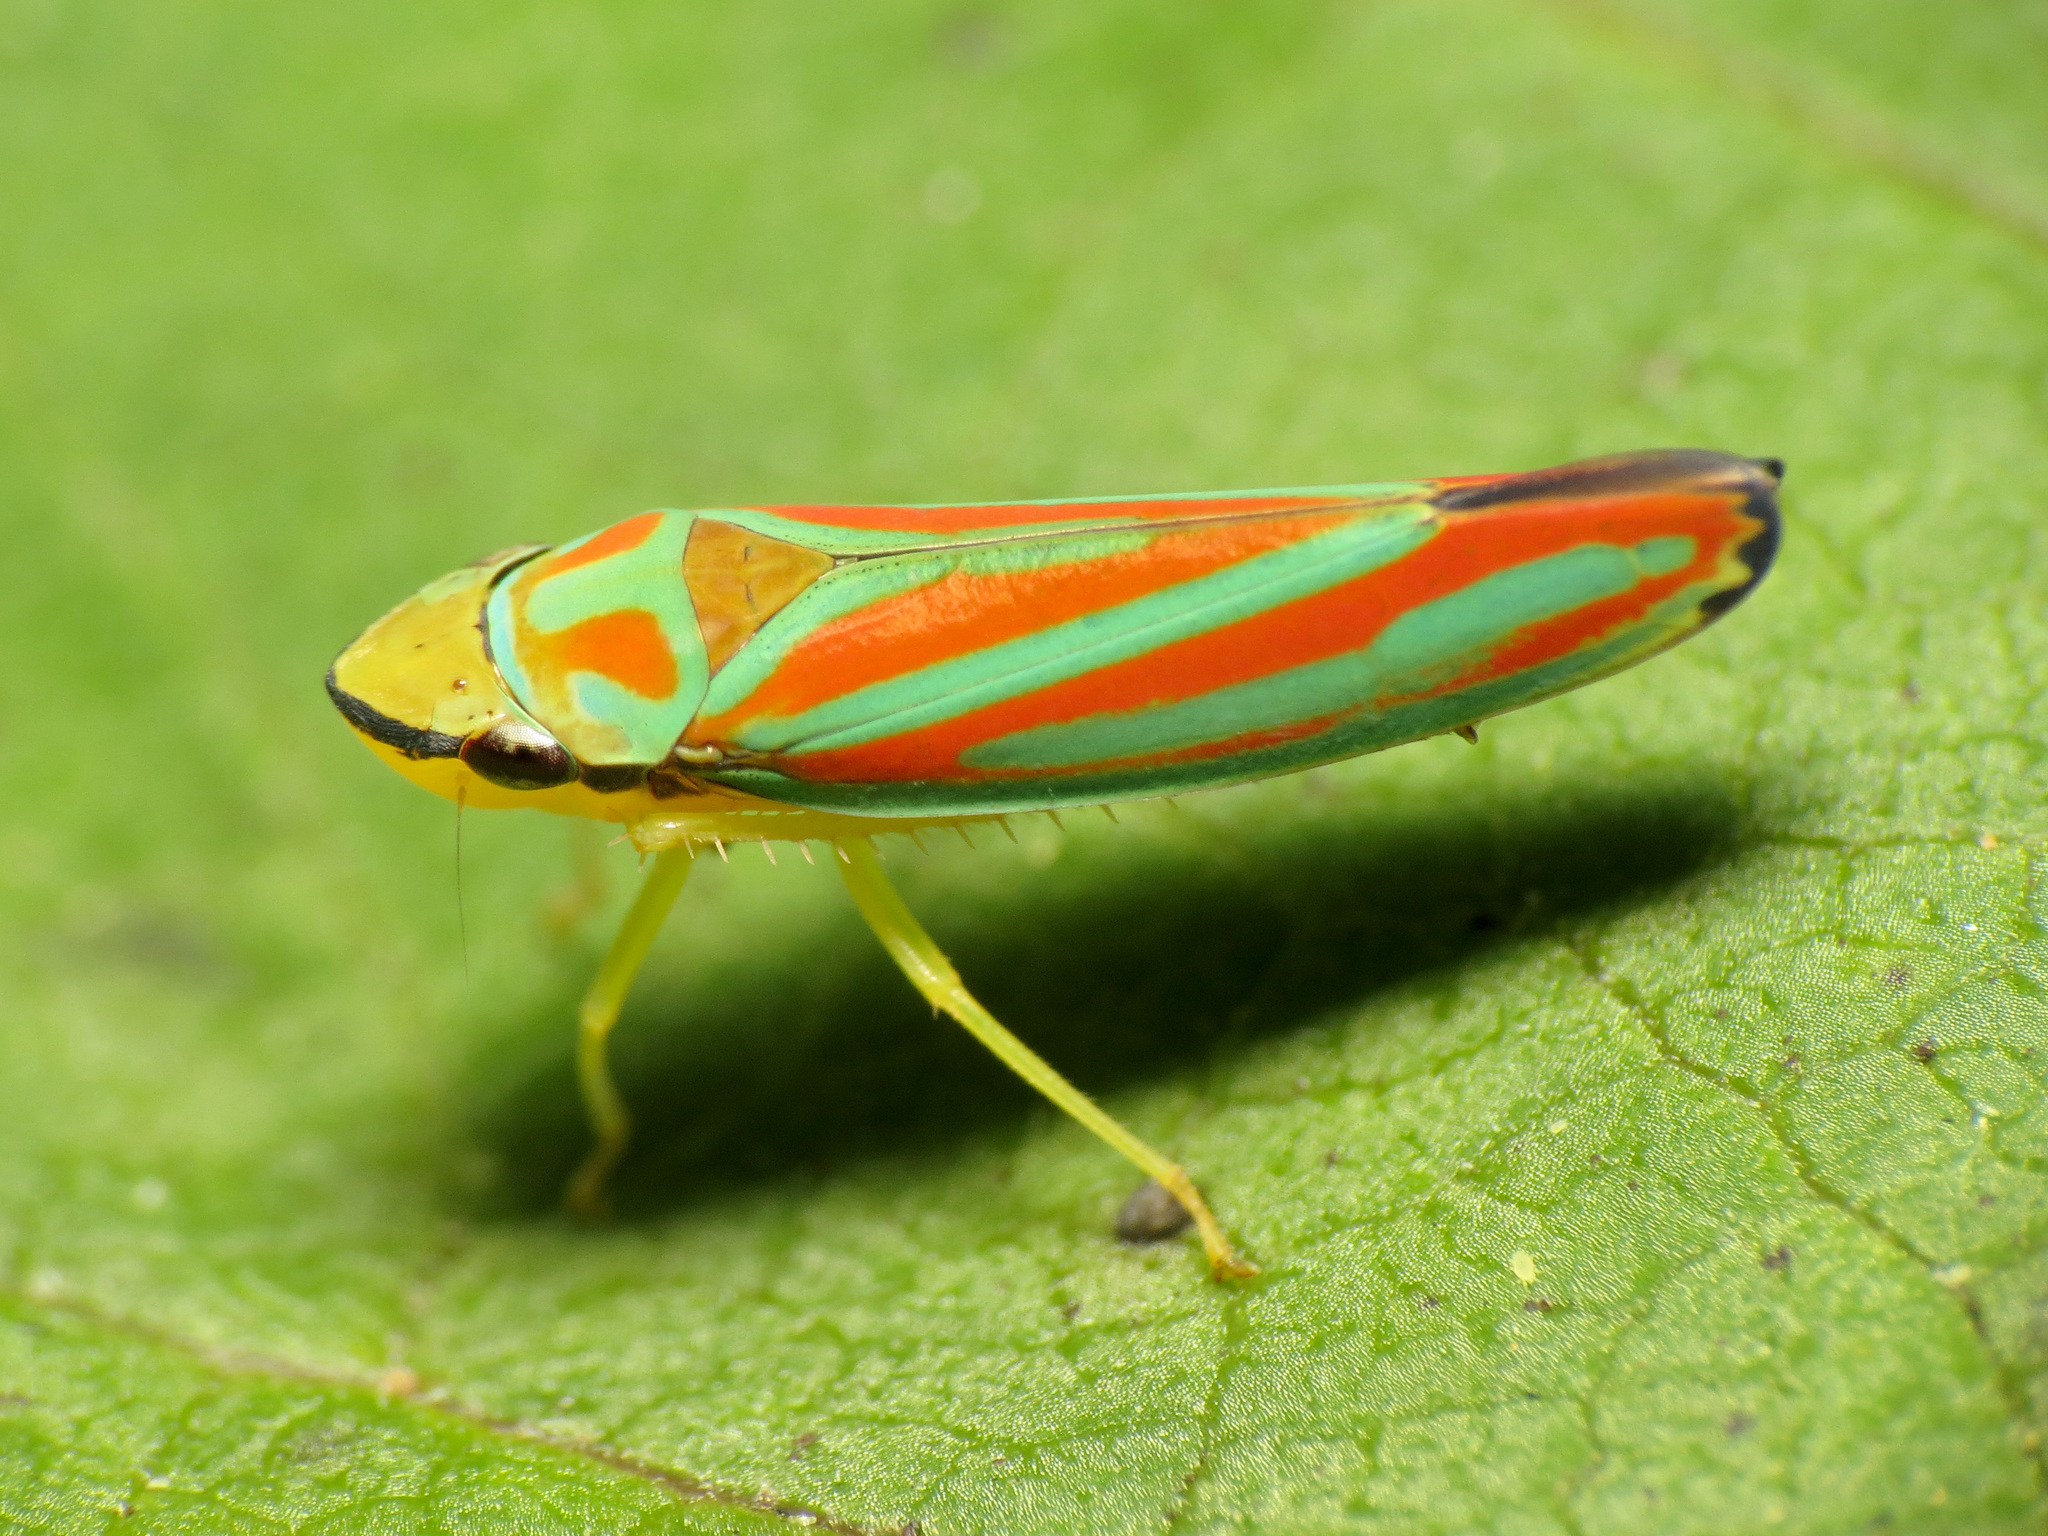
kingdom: Animalia
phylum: Arthropoda
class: Insecta
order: Hemiptera
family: Cicadellidae
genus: Graphocephala
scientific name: Graphocephala coccinea
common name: Candy-striped leafhopper
